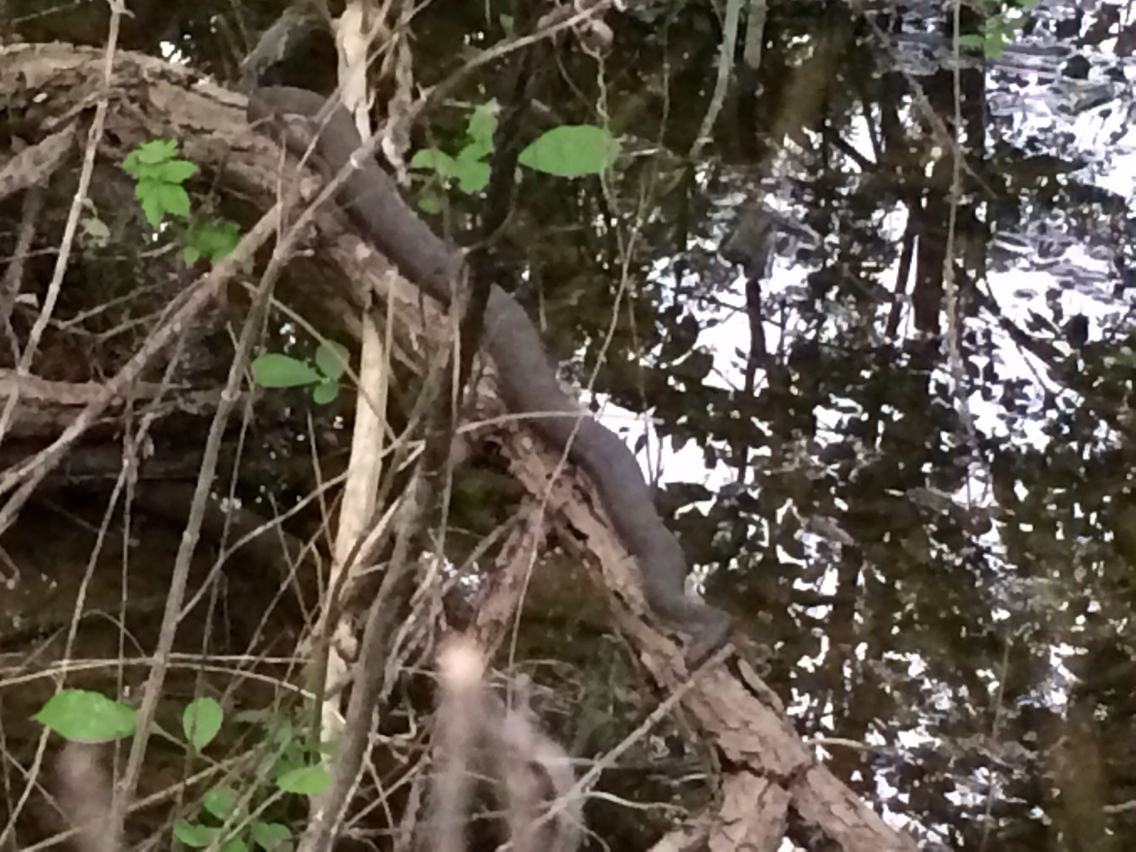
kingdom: Animalia
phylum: Chordata
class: Squamata
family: Colubridae
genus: Nerodia
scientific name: Nerodia
